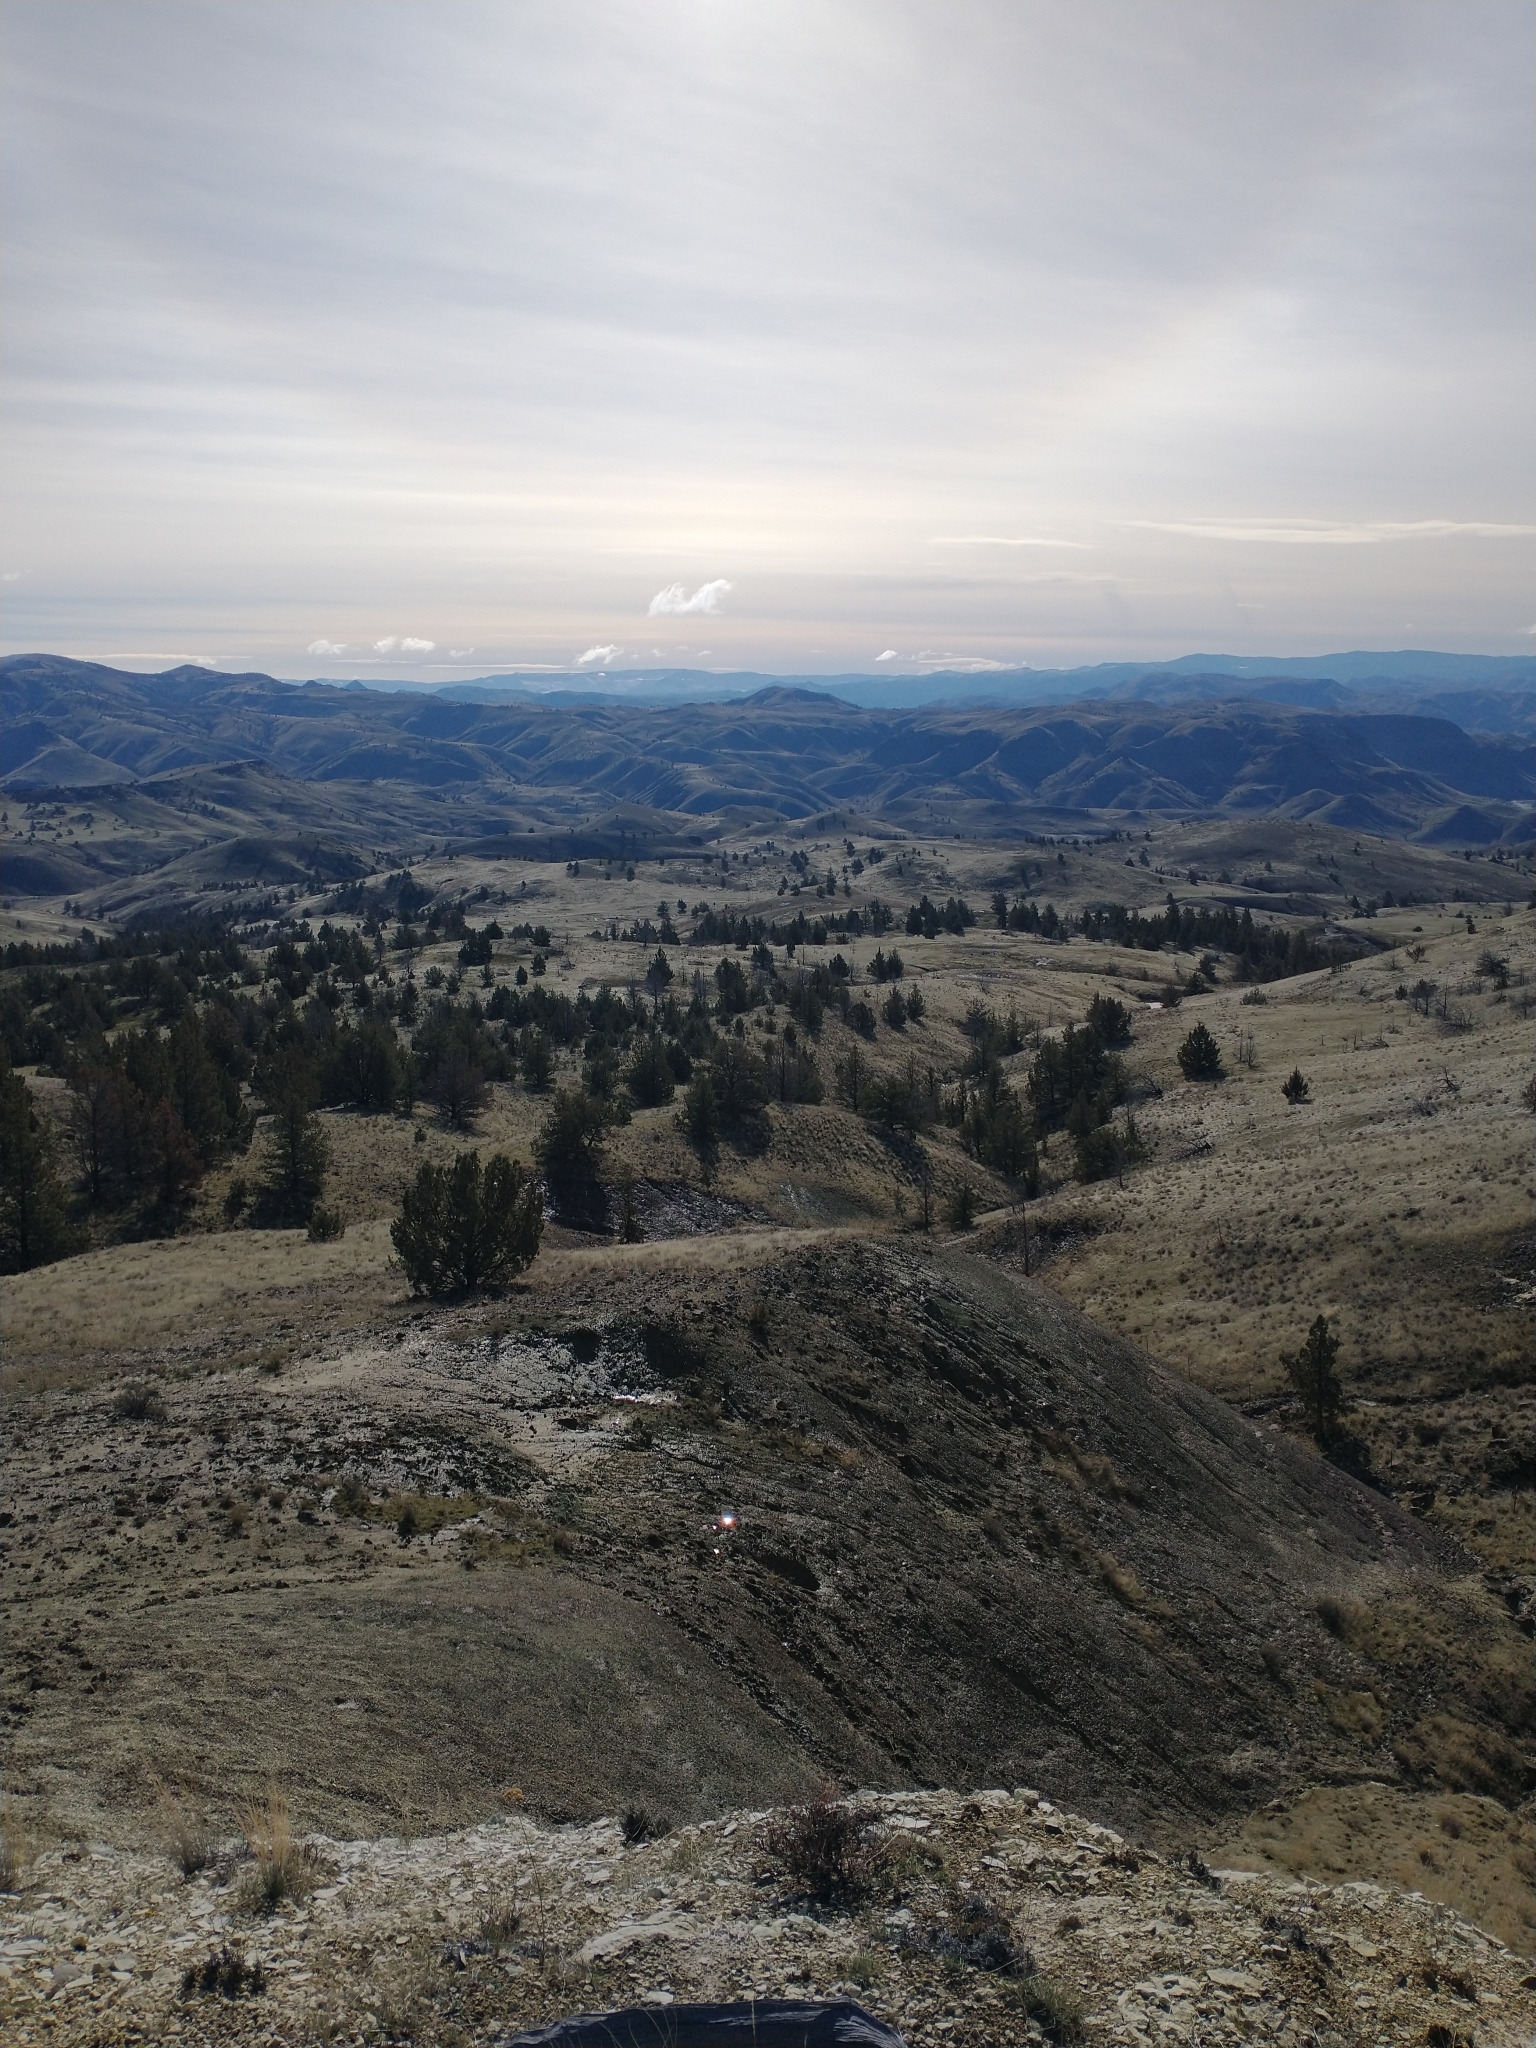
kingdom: Plantae
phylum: Tracheophyta
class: Pinopsida
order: Pinales
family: Cupressaceae
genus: Juniperus
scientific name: Juniperus occidentalis
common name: Western juniper
